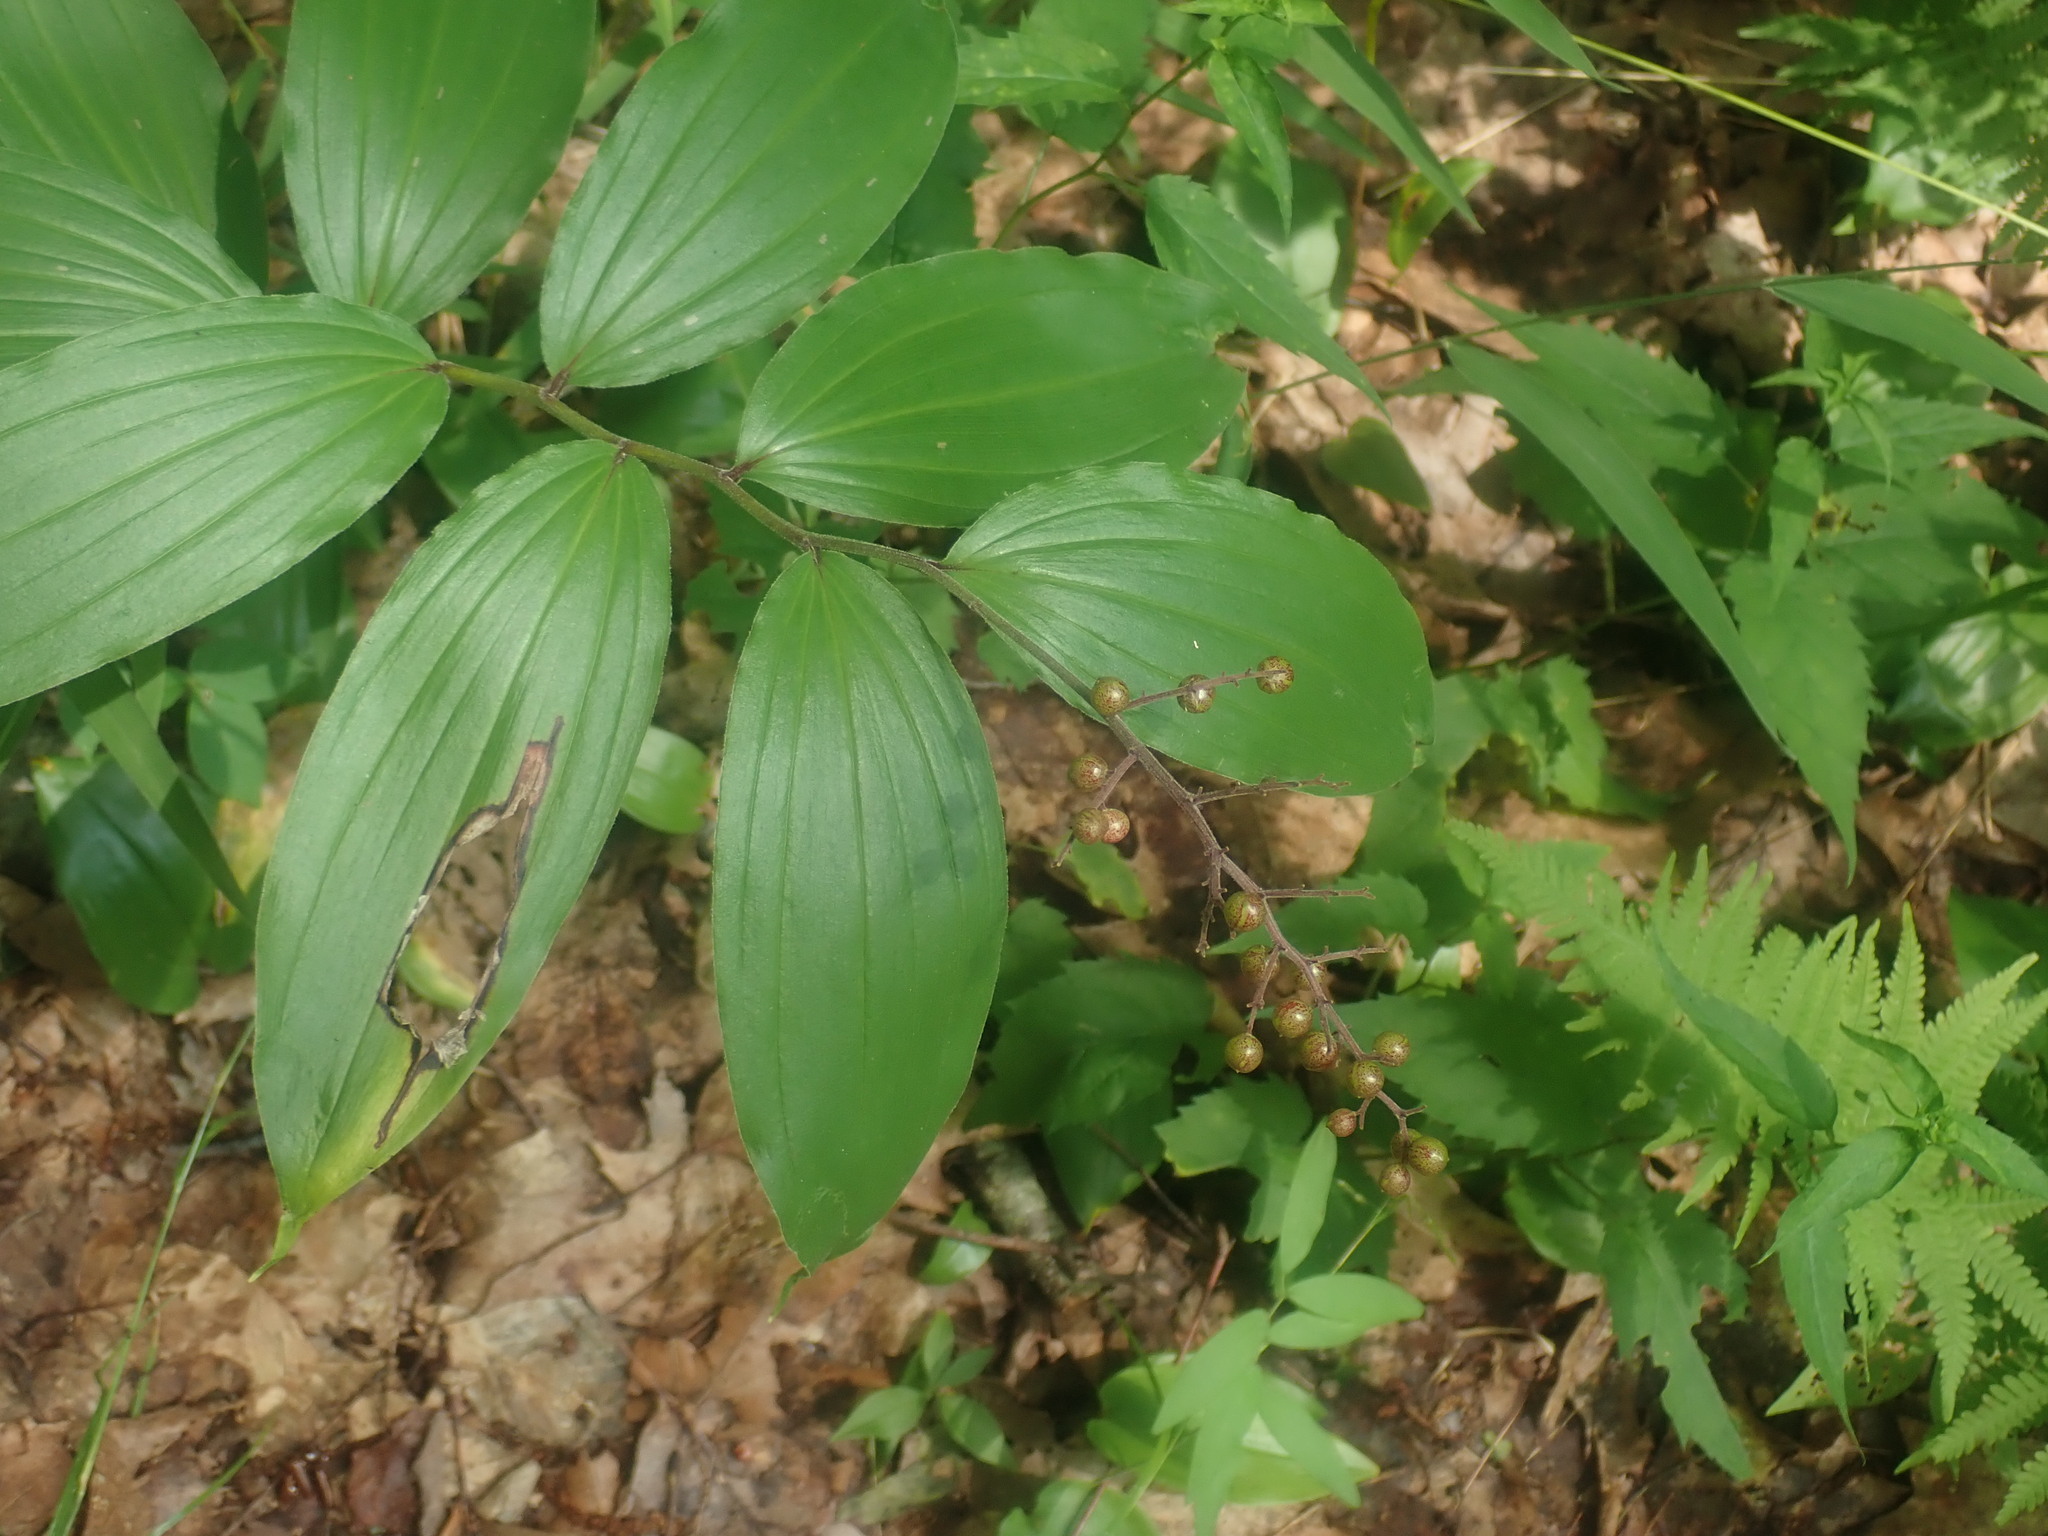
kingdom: Plantae
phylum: Tracheophyta
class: Liliopsida
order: Asparagales
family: Asparagaceae
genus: Maianthemum
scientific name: Maianthemum racemosum
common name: False spikenard
